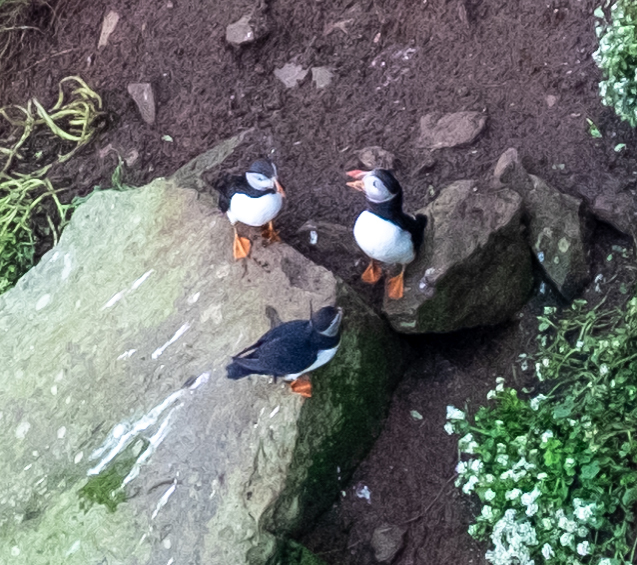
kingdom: Animalia
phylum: Chordata
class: Aves
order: Charadriiformes
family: Alcidae
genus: Fratercula
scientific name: Fratercula arctica
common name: Atlantic puffin
